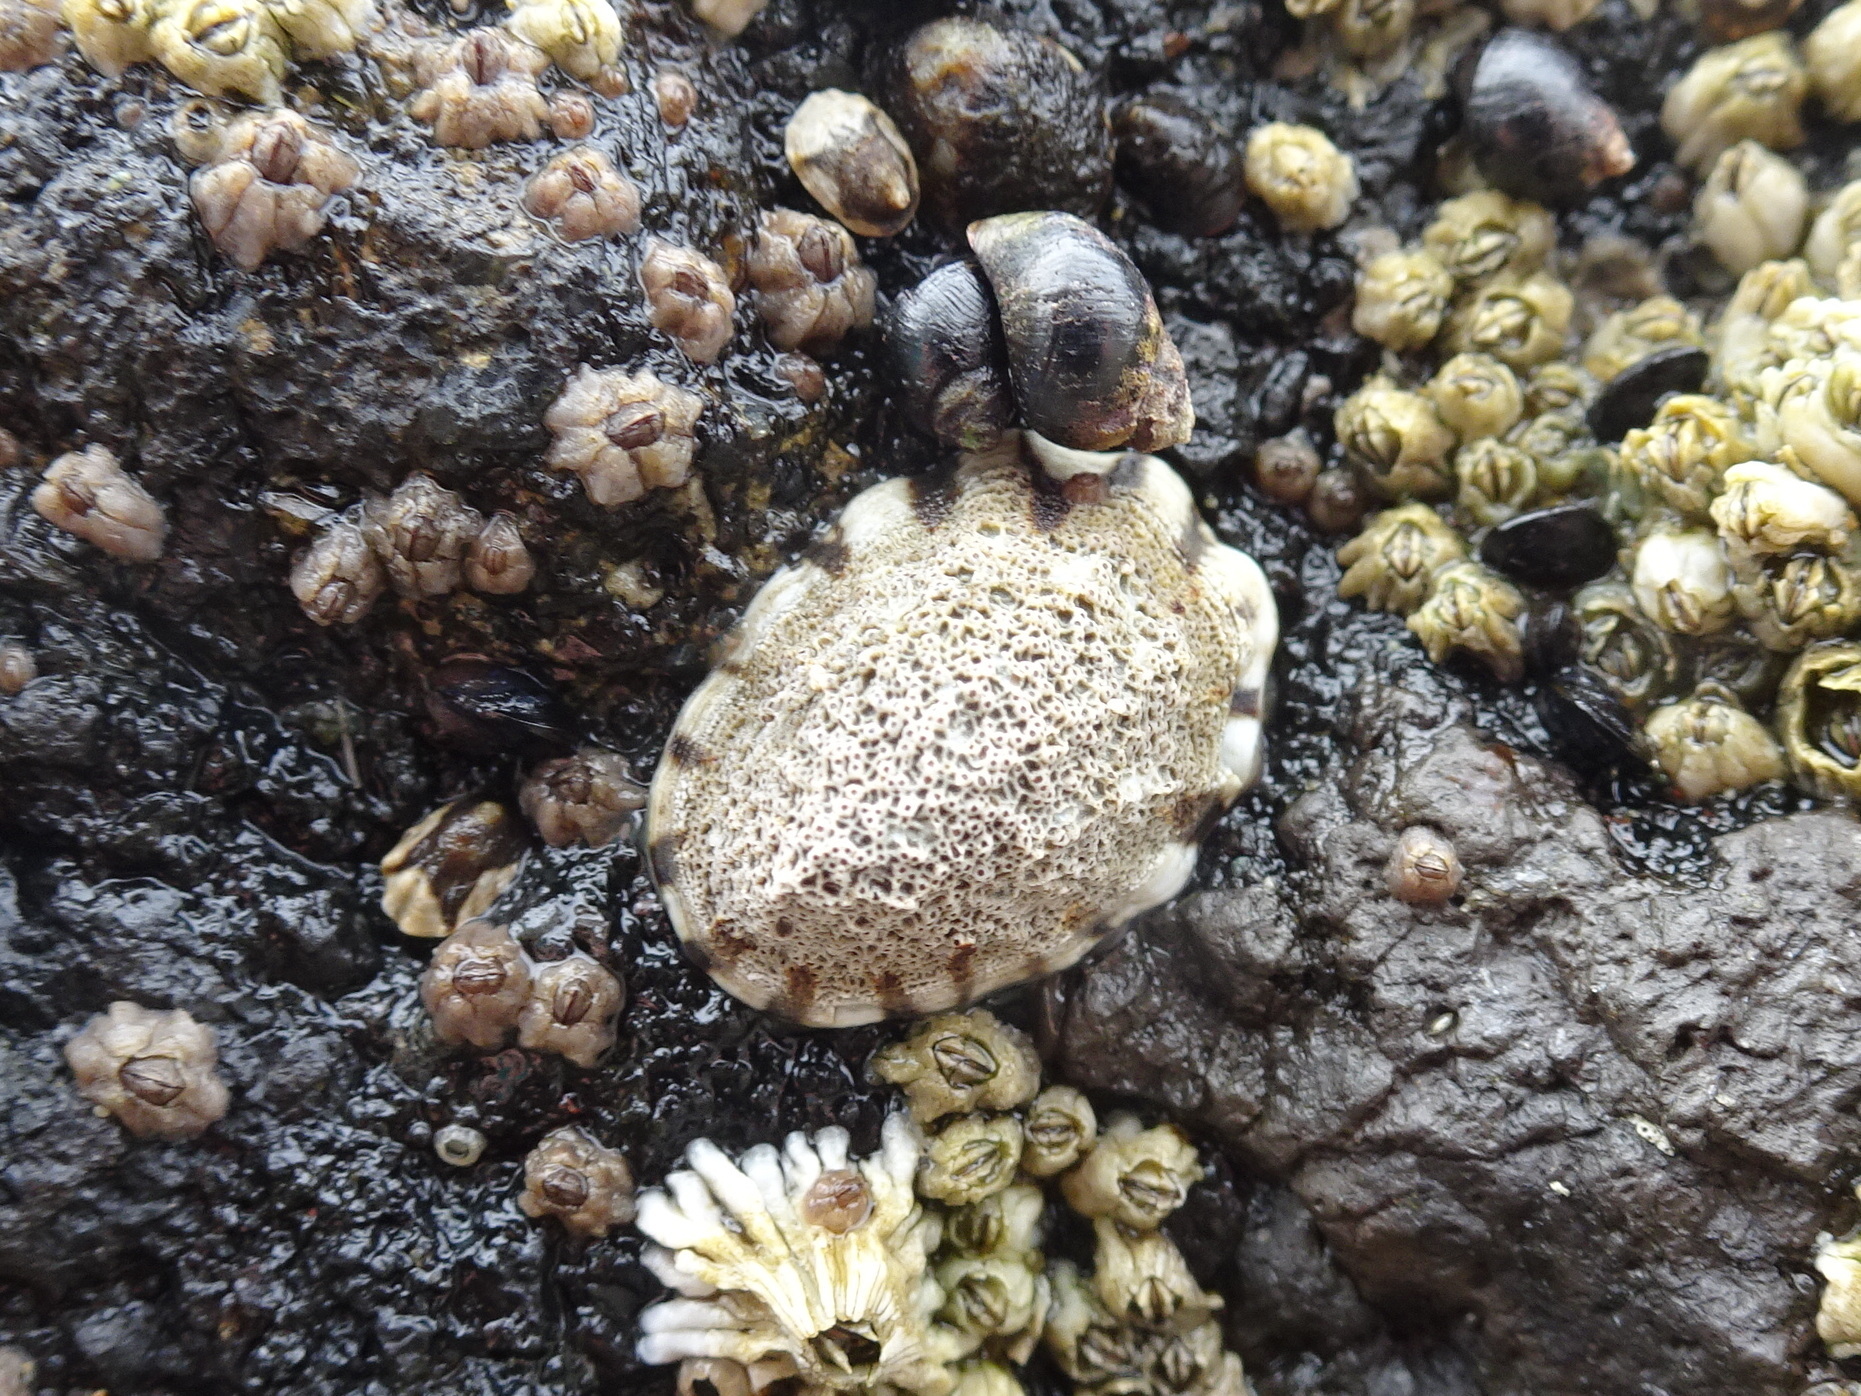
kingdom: Animalia
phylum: Mollusca
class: Gastropoda
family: Lottiidae
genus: Lottia
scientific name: Lottia digitalis
